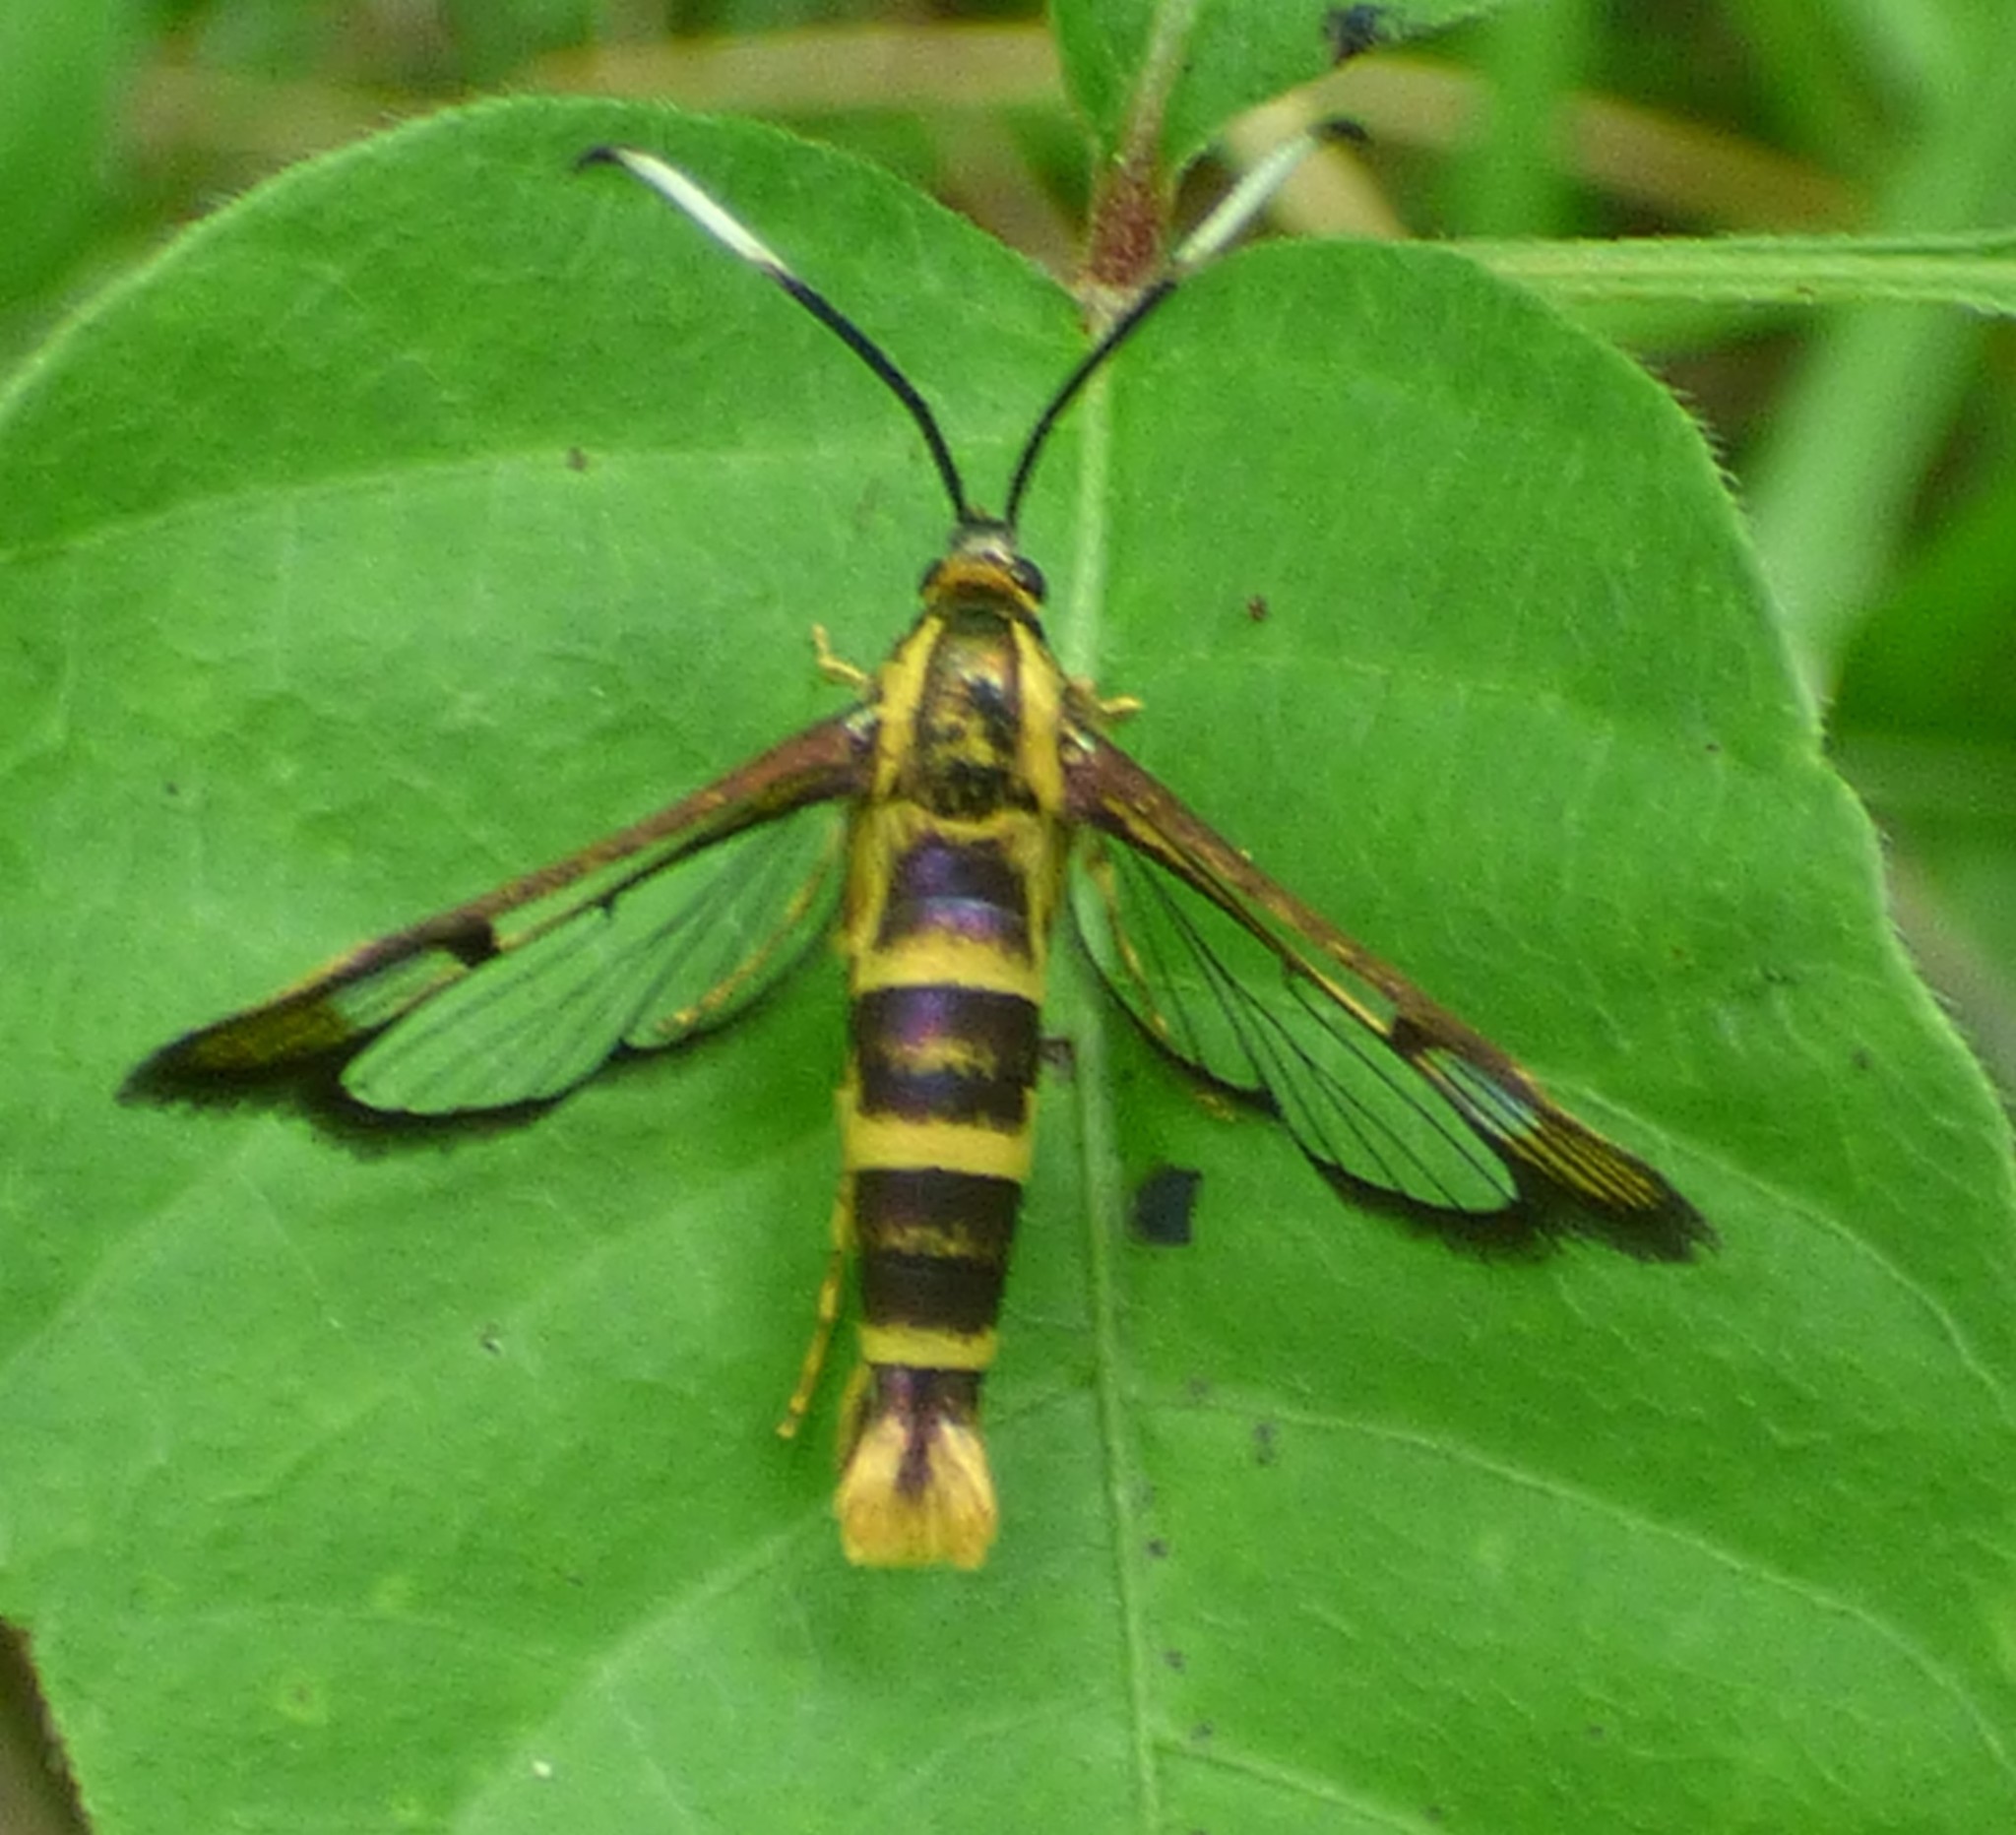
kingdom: Animalia
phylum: Arthropoda
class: Insecta
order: Lepidoptera
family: Sesiidae
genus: Carmenta
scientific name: Carmenta bassiformis
